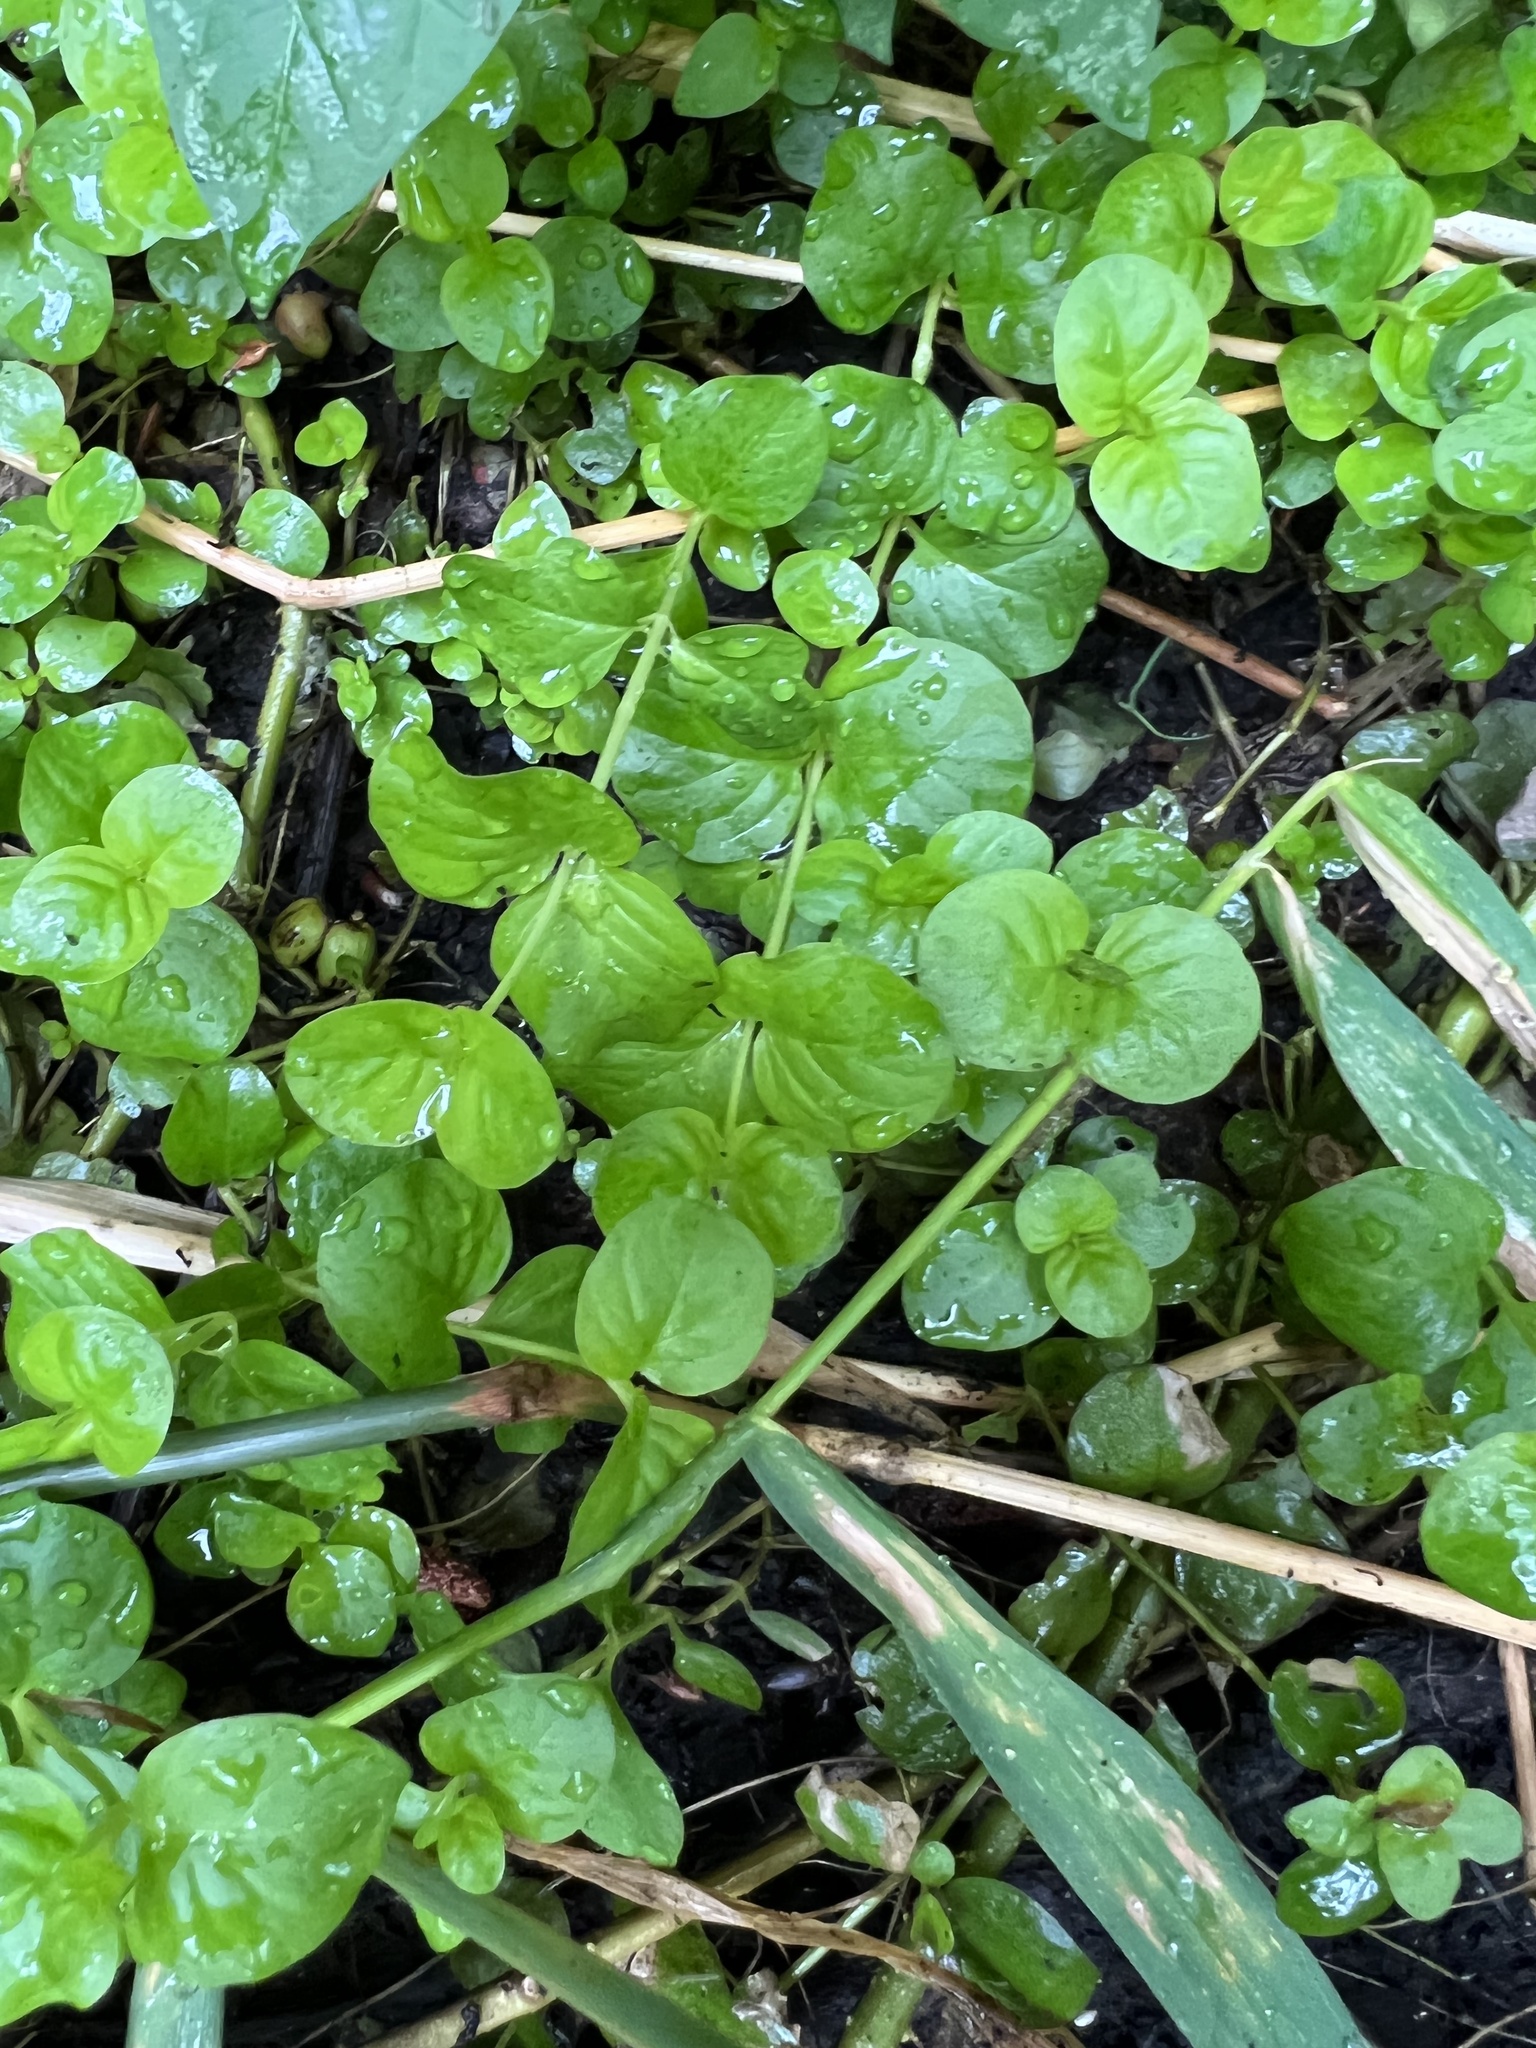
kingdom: Plantae
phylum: Tracheophyta
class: Magnoliopsida
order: Ericales
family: Primulaceae
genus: Lysimachia
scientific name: Lysimachia nummularia
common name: Moneywort
